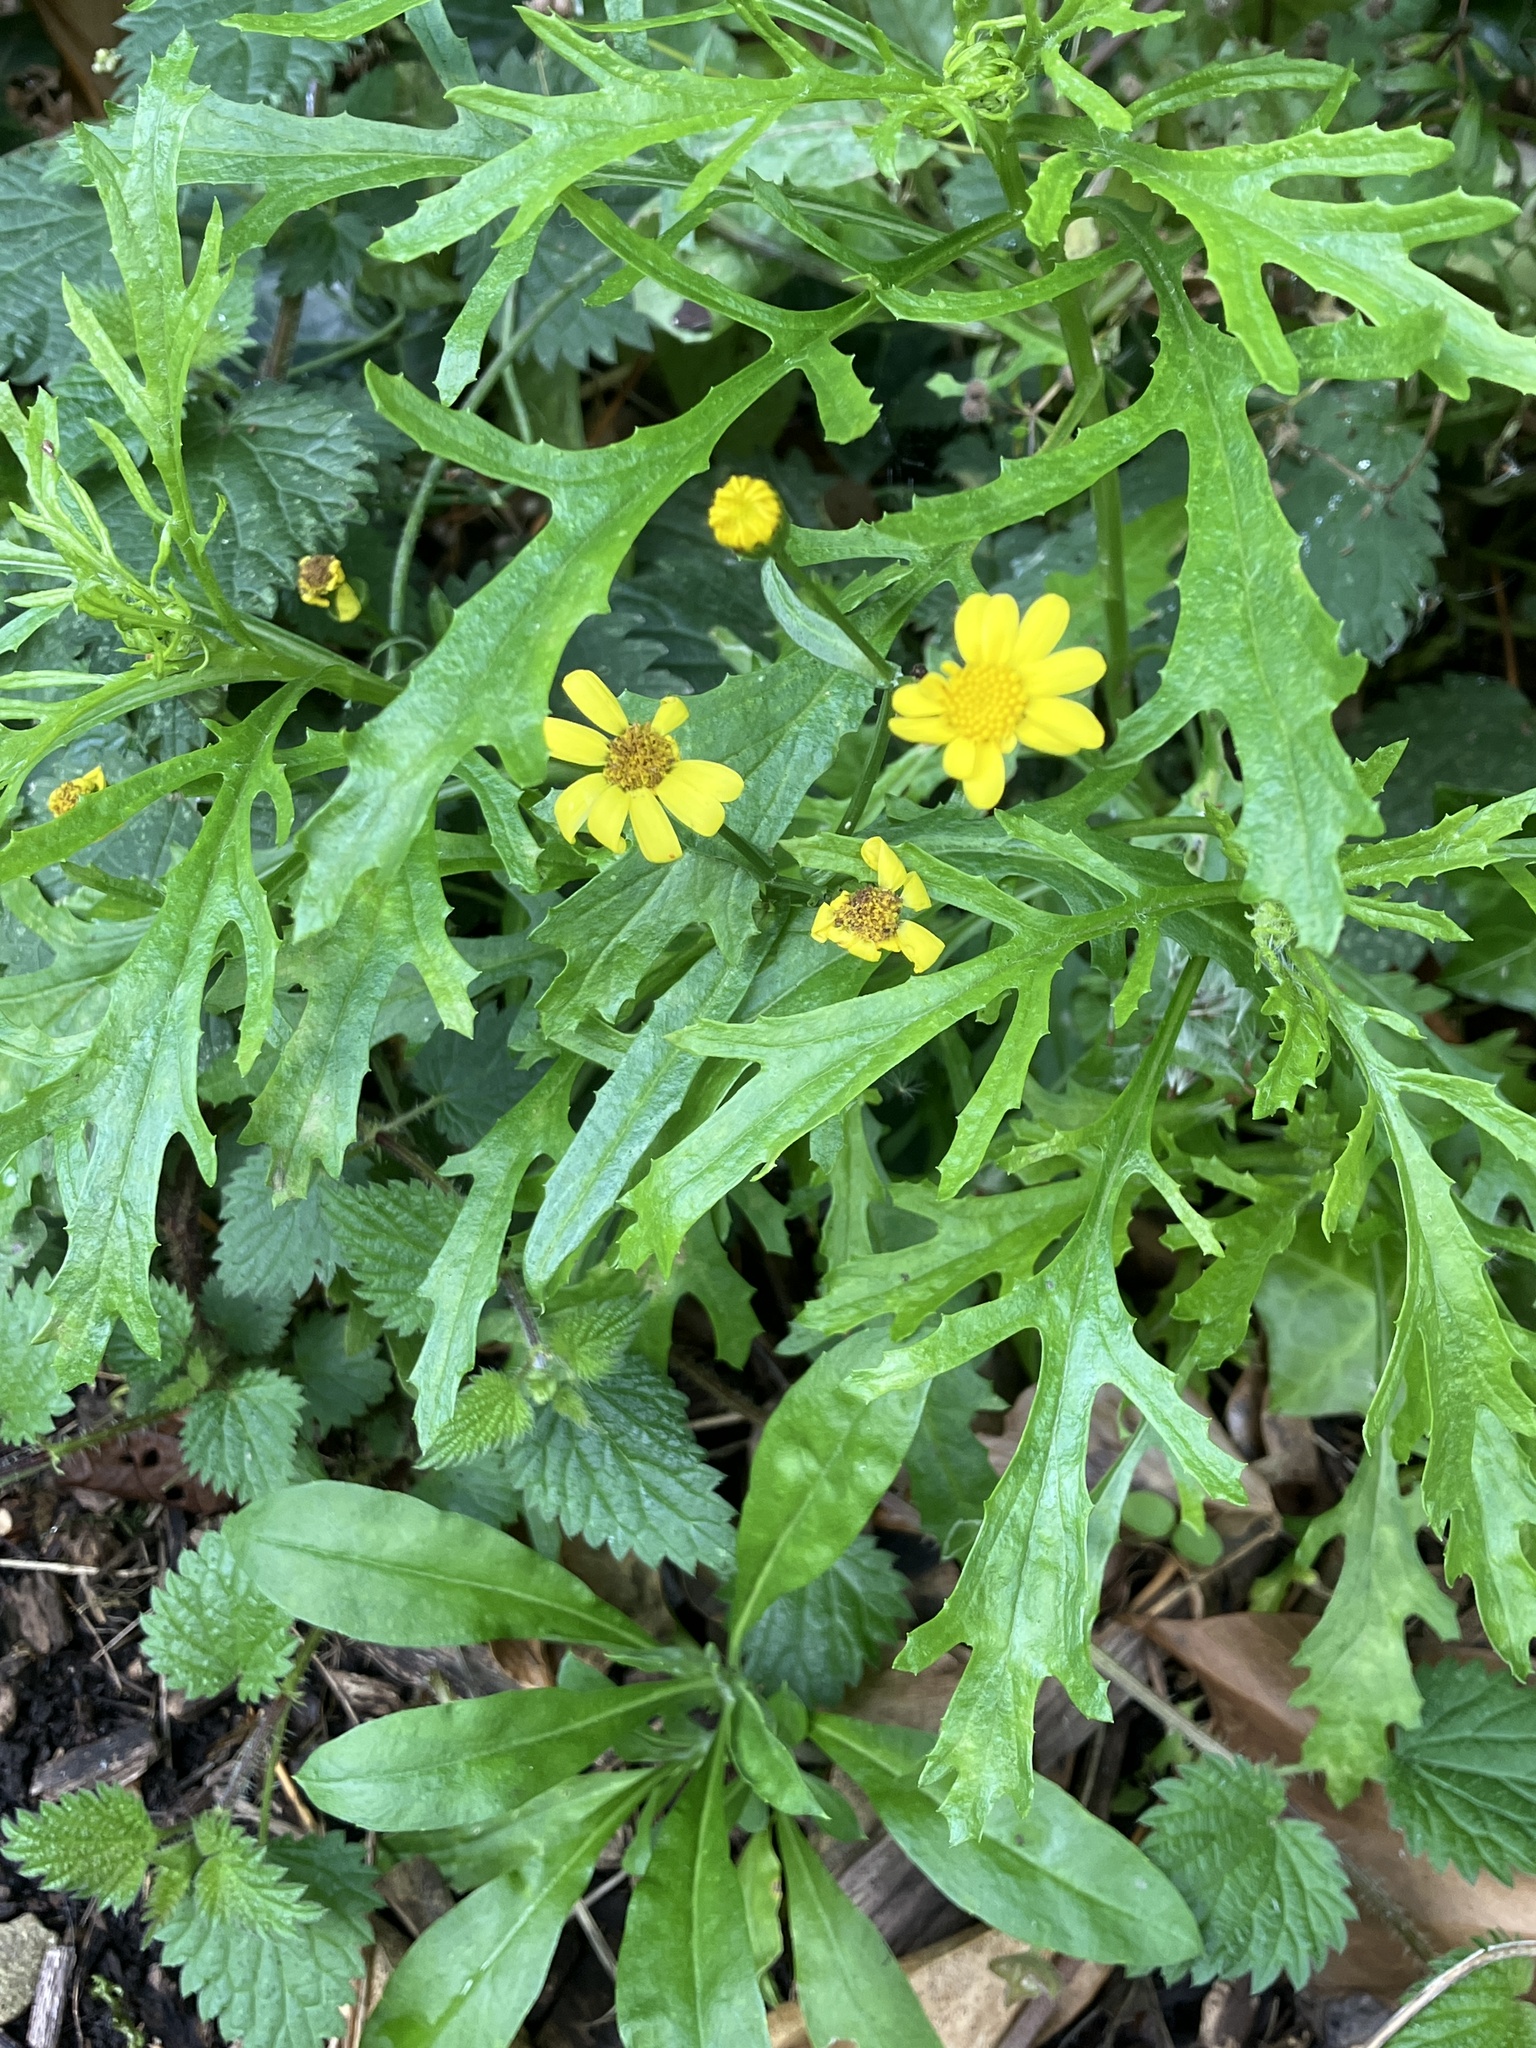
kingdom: Plantae
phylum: Tracheophyta
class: Magnoliopsida
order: Asterales
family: Asteraceae
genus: Senecio
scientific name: Senecio squalidus
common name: Oxford ragwort
